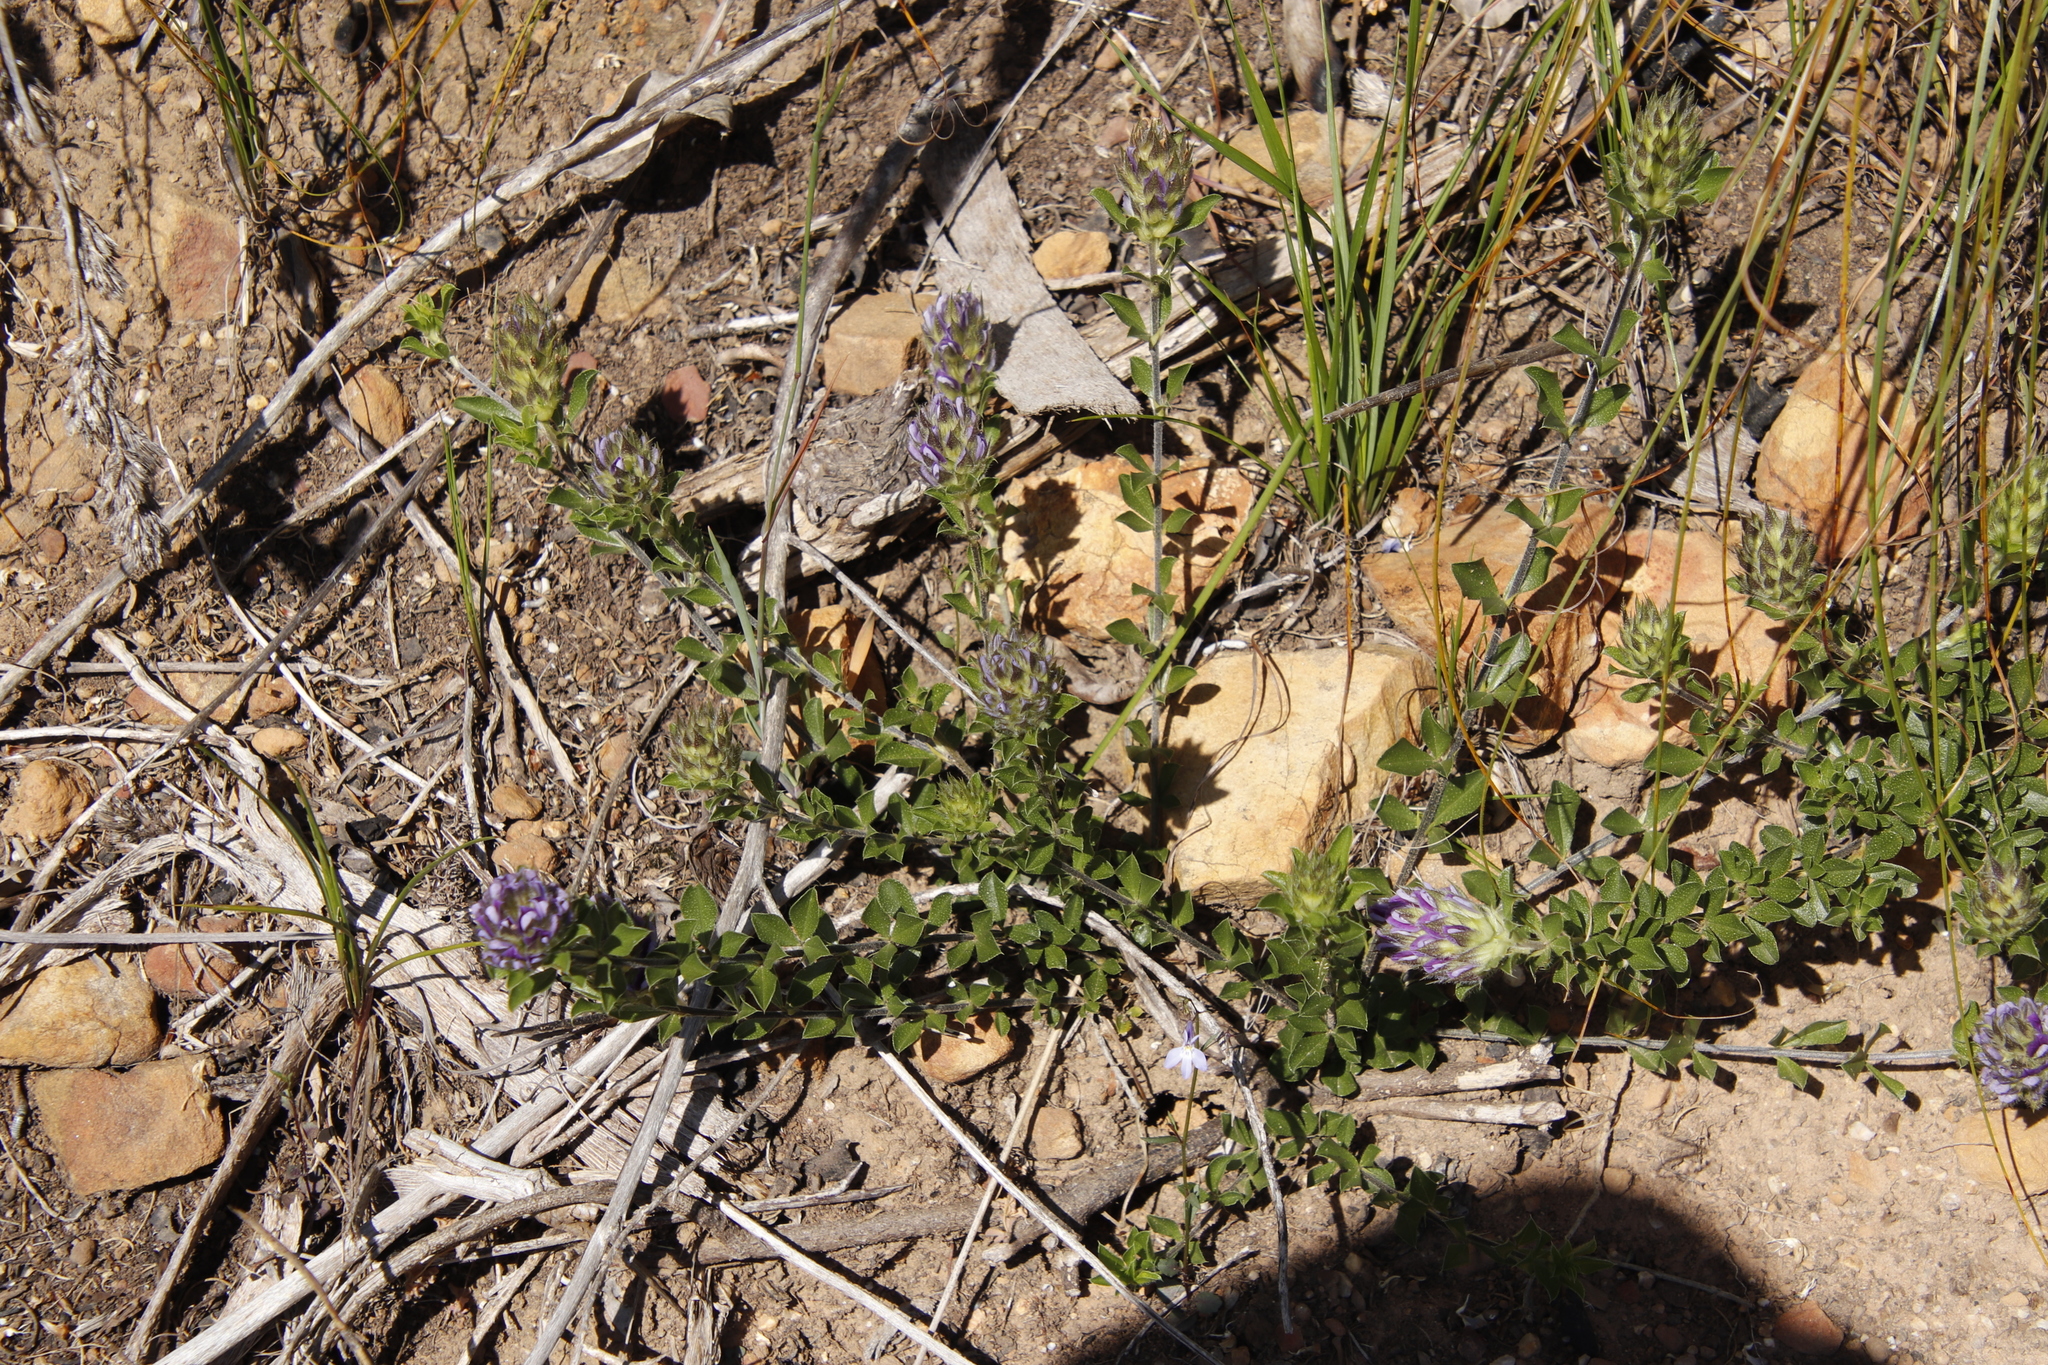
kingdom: Plantae
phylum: Tracheophyta
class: Magnoliopsida
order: Fabales
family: Fabaceae
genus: Psoralea
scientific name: Psoralea fruticans
